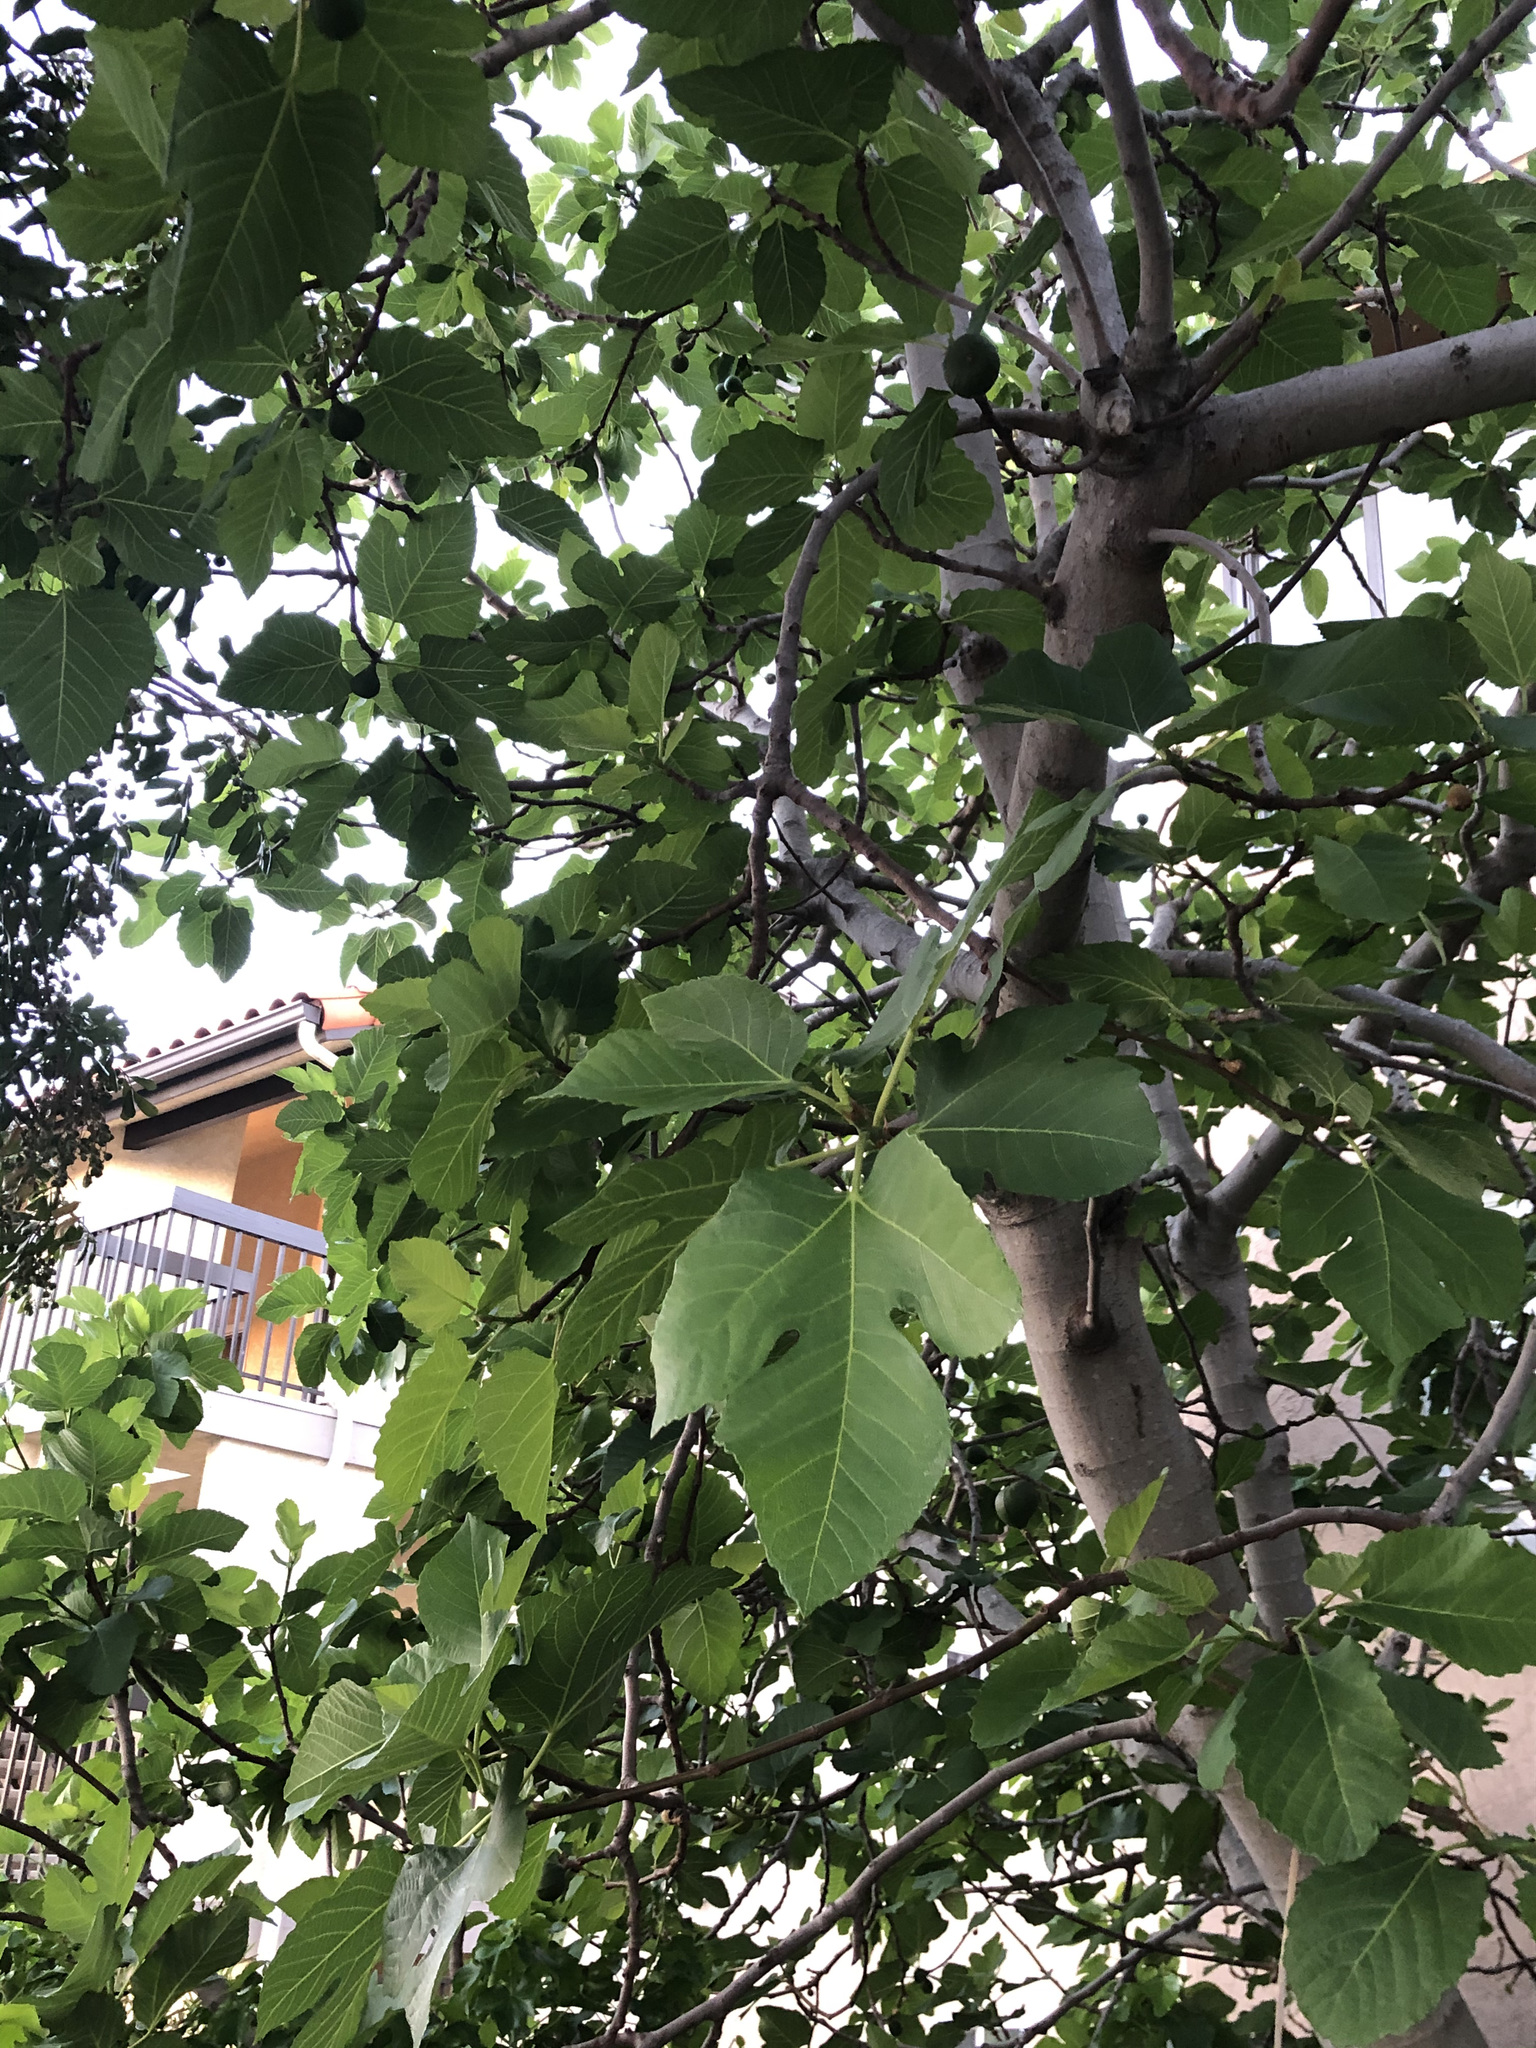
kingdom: Plantae
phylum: Tracheophyta
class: Magnoliopsida
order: Rosales
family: Moraceae
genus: Ficus
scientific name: Ficus carica
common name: Fig
